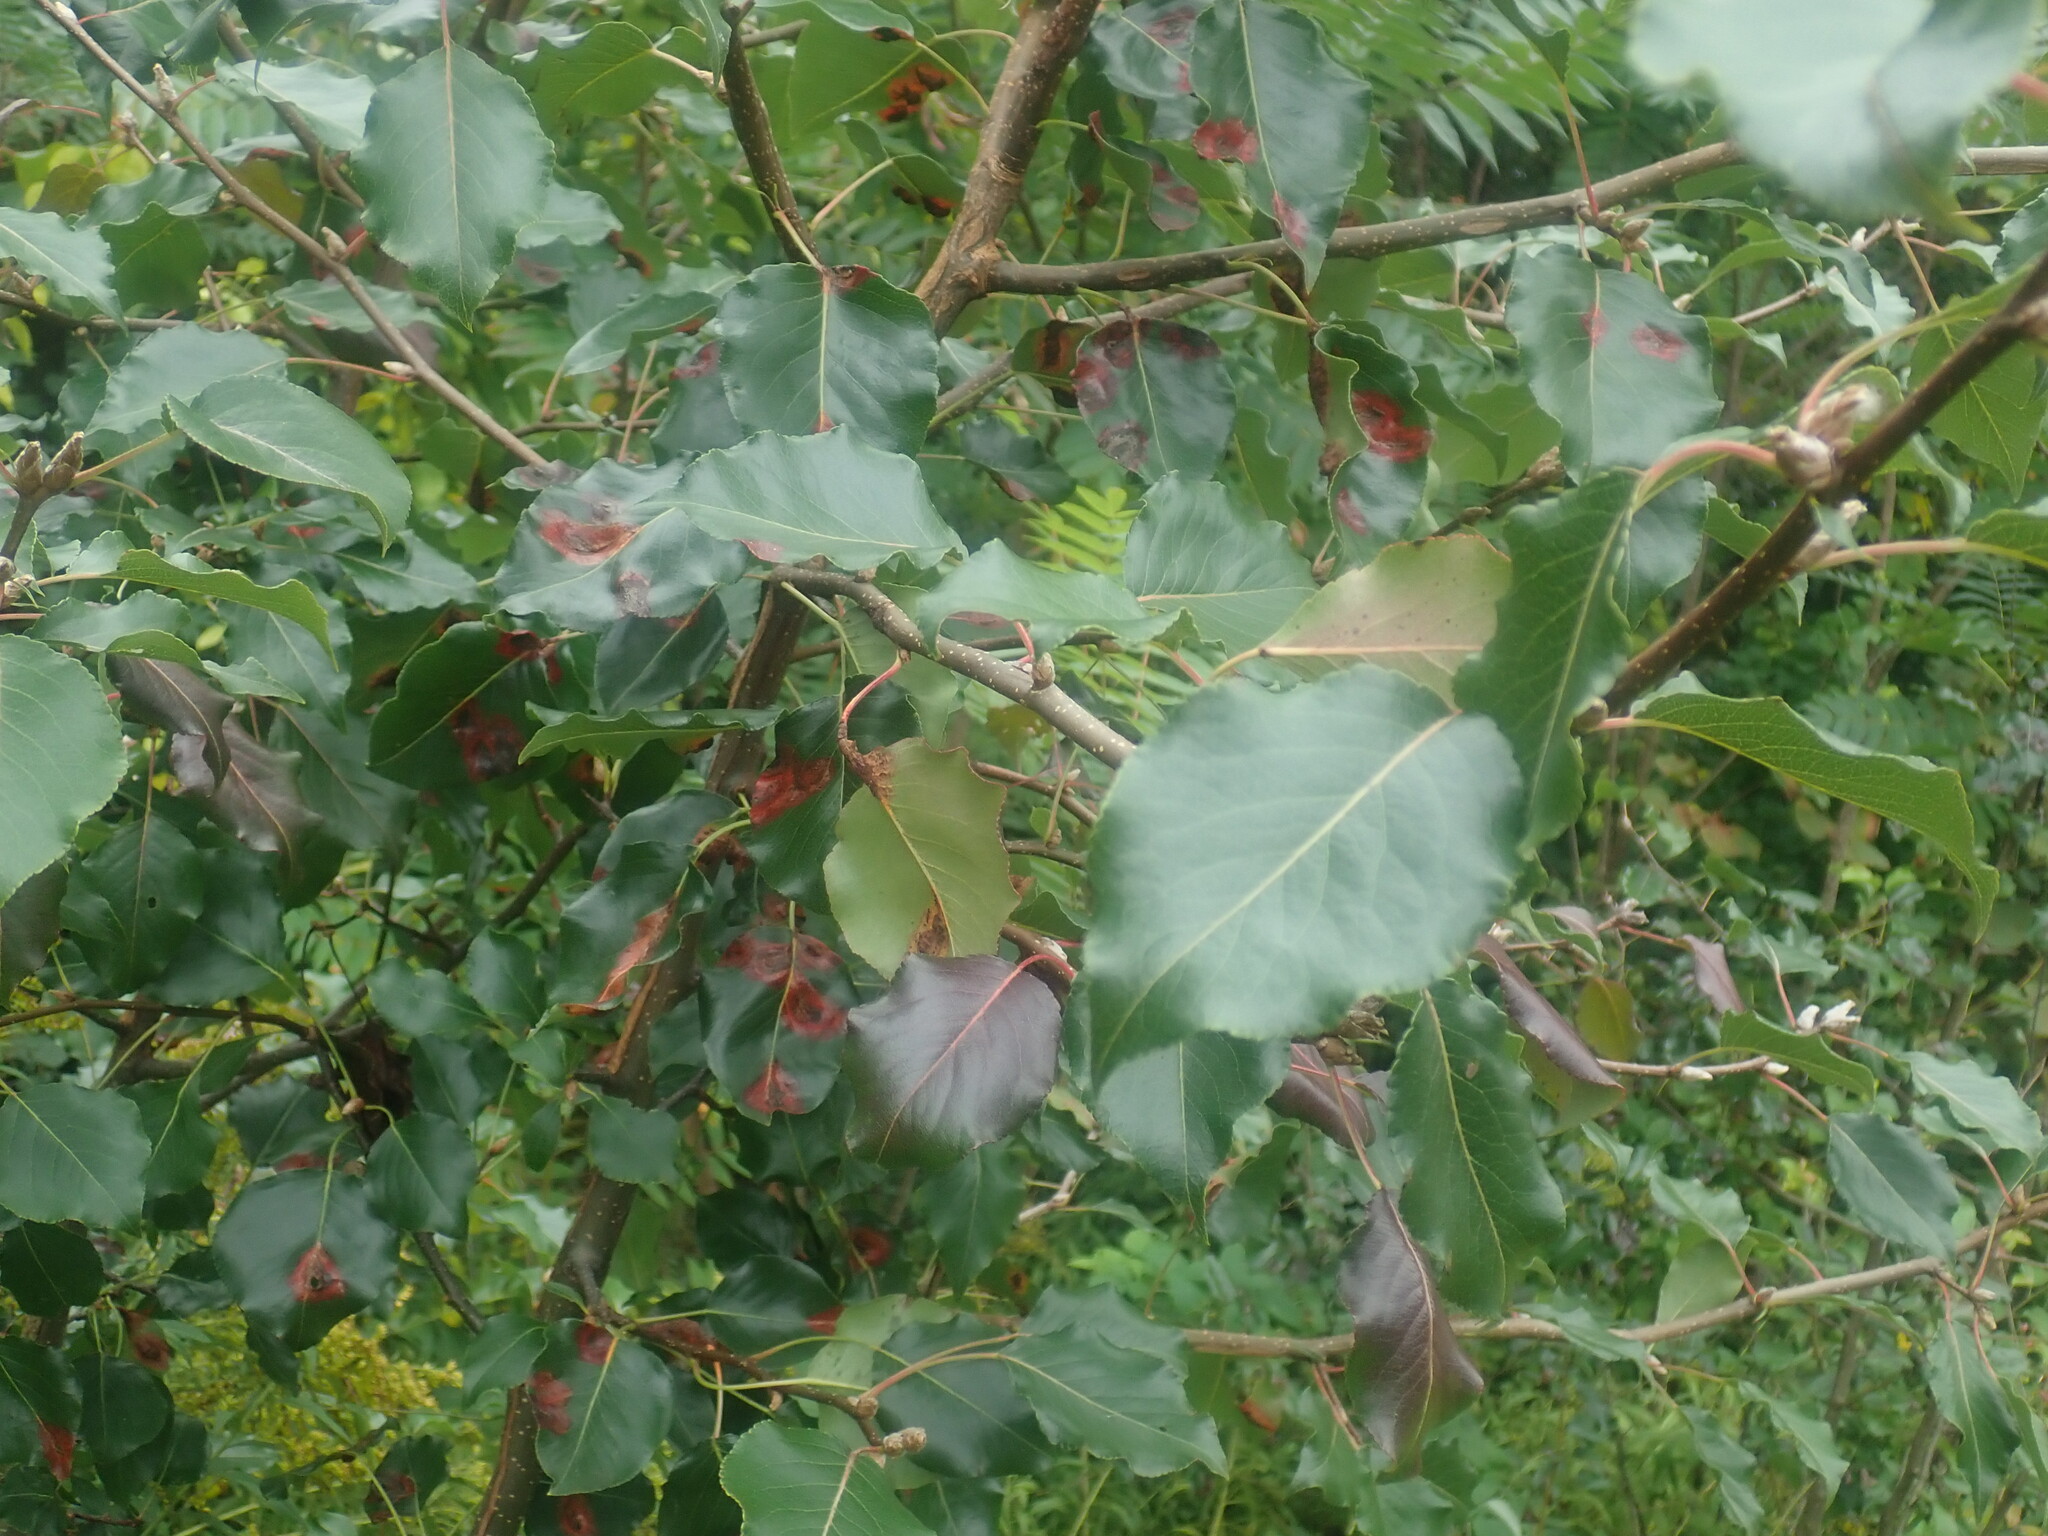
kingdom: Plantae
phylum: Tracheophyta
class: Magnoliopsida
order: Rosales
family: Rosaceae
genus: Pyrus
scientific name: Pyrus calleryana
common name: Callery pear
